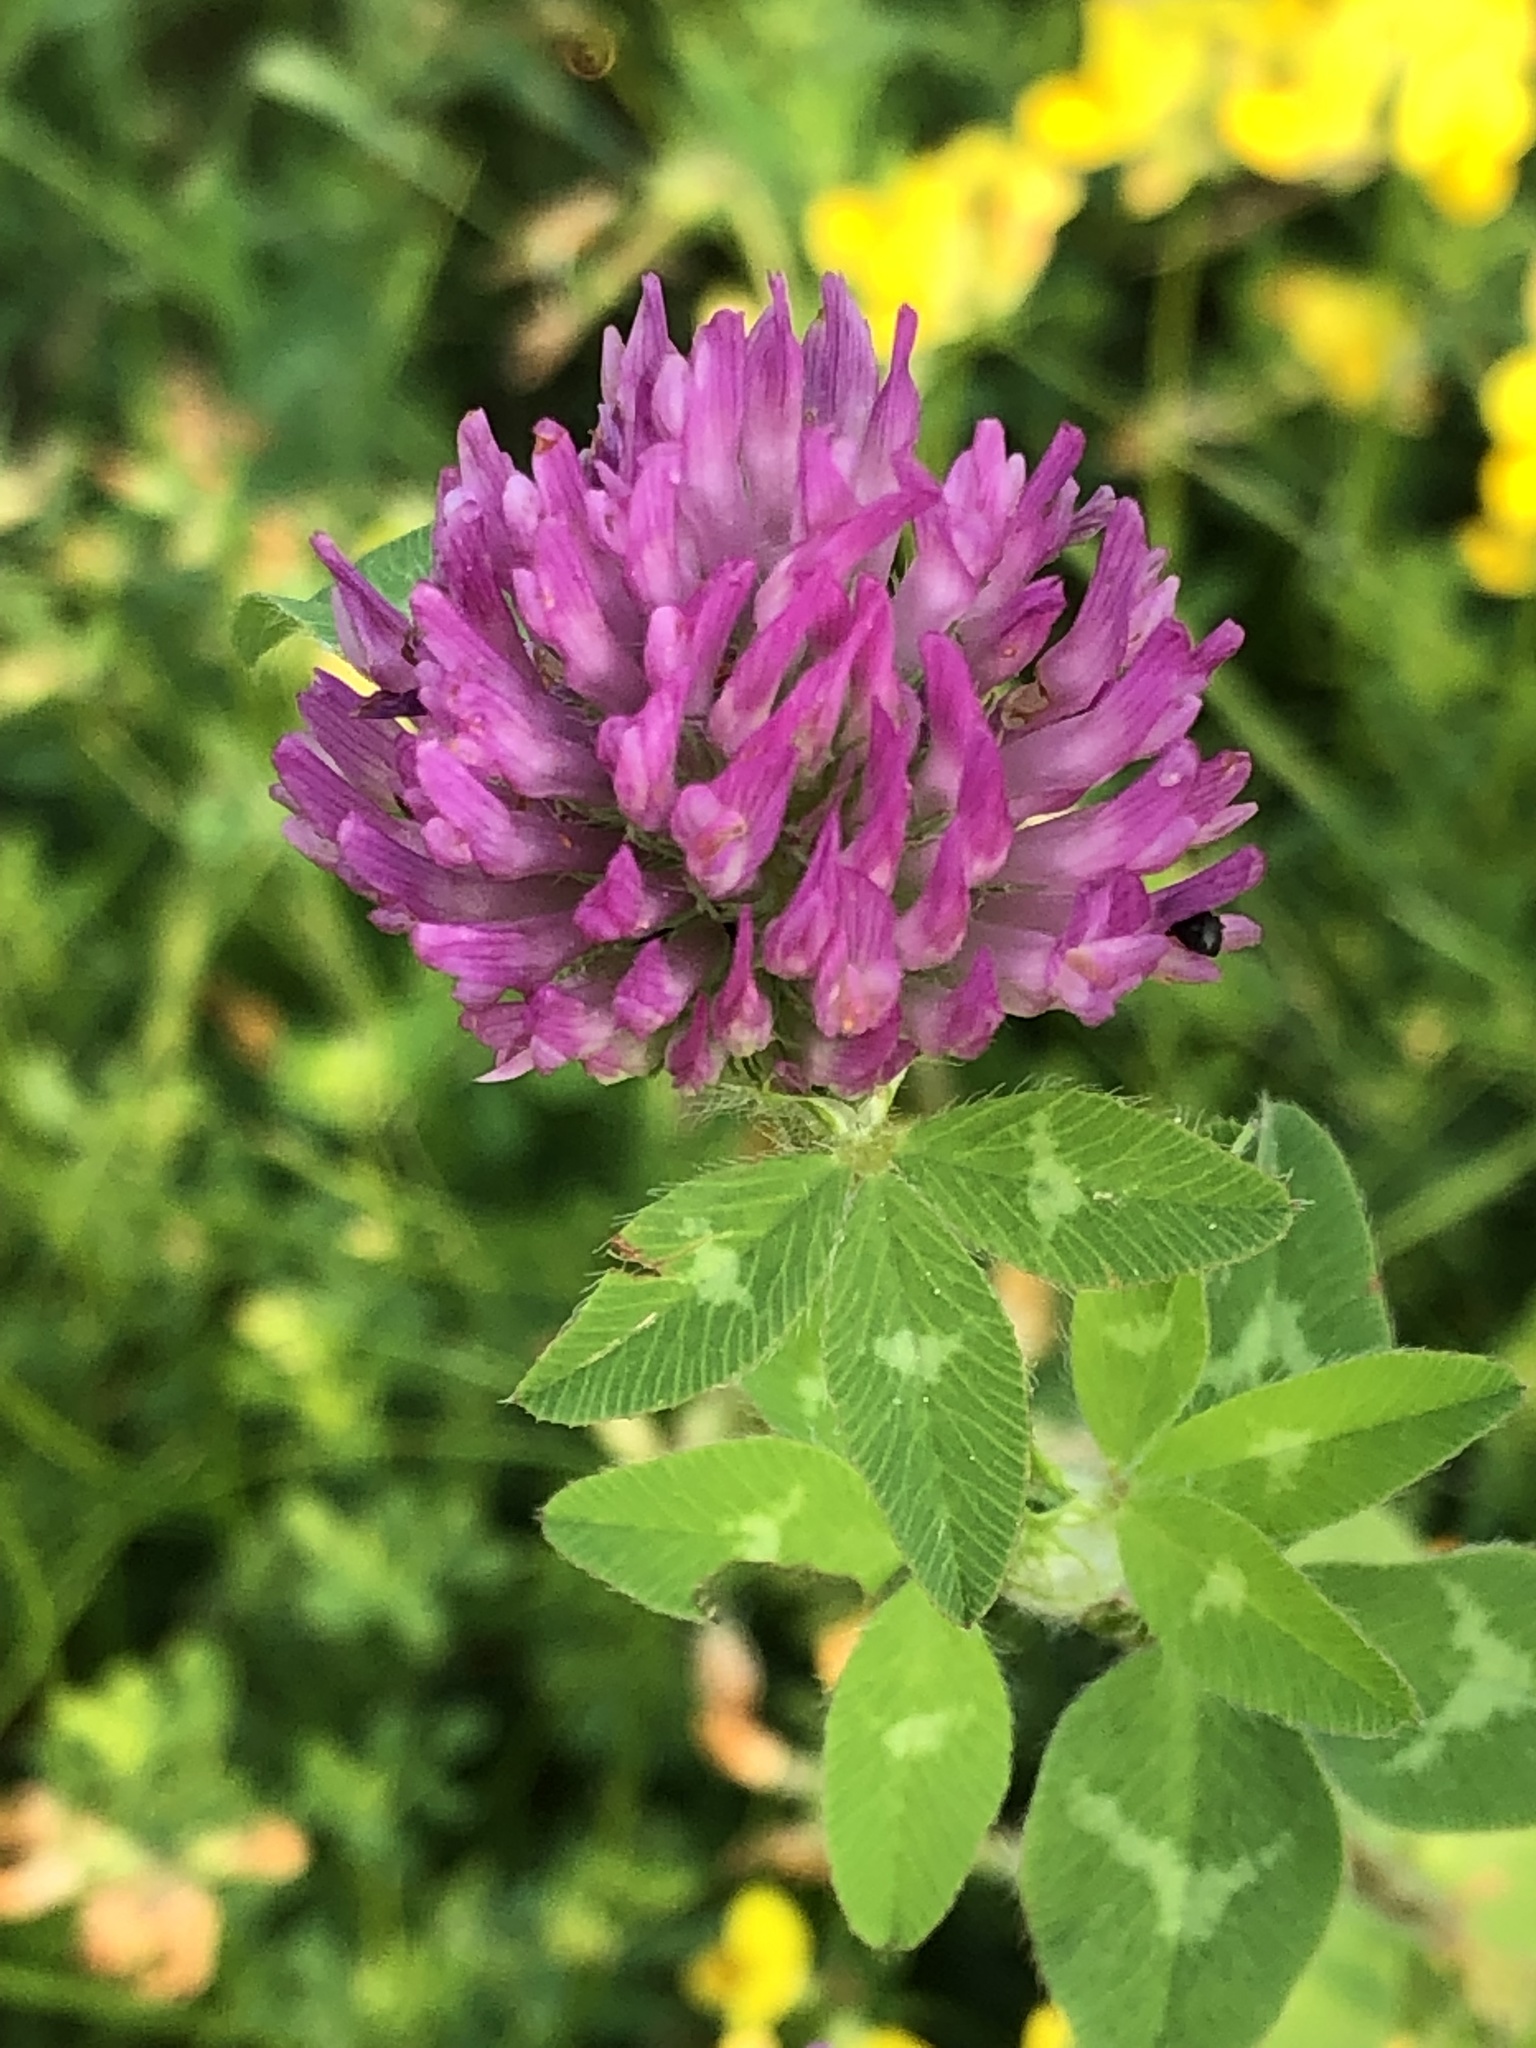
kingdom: Plantae
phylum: Tracheophyta
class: Magnoliopsida
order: Fabales
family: Fabaceae
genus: Trifolium
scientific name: Trifolium pratense
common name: Red clover
